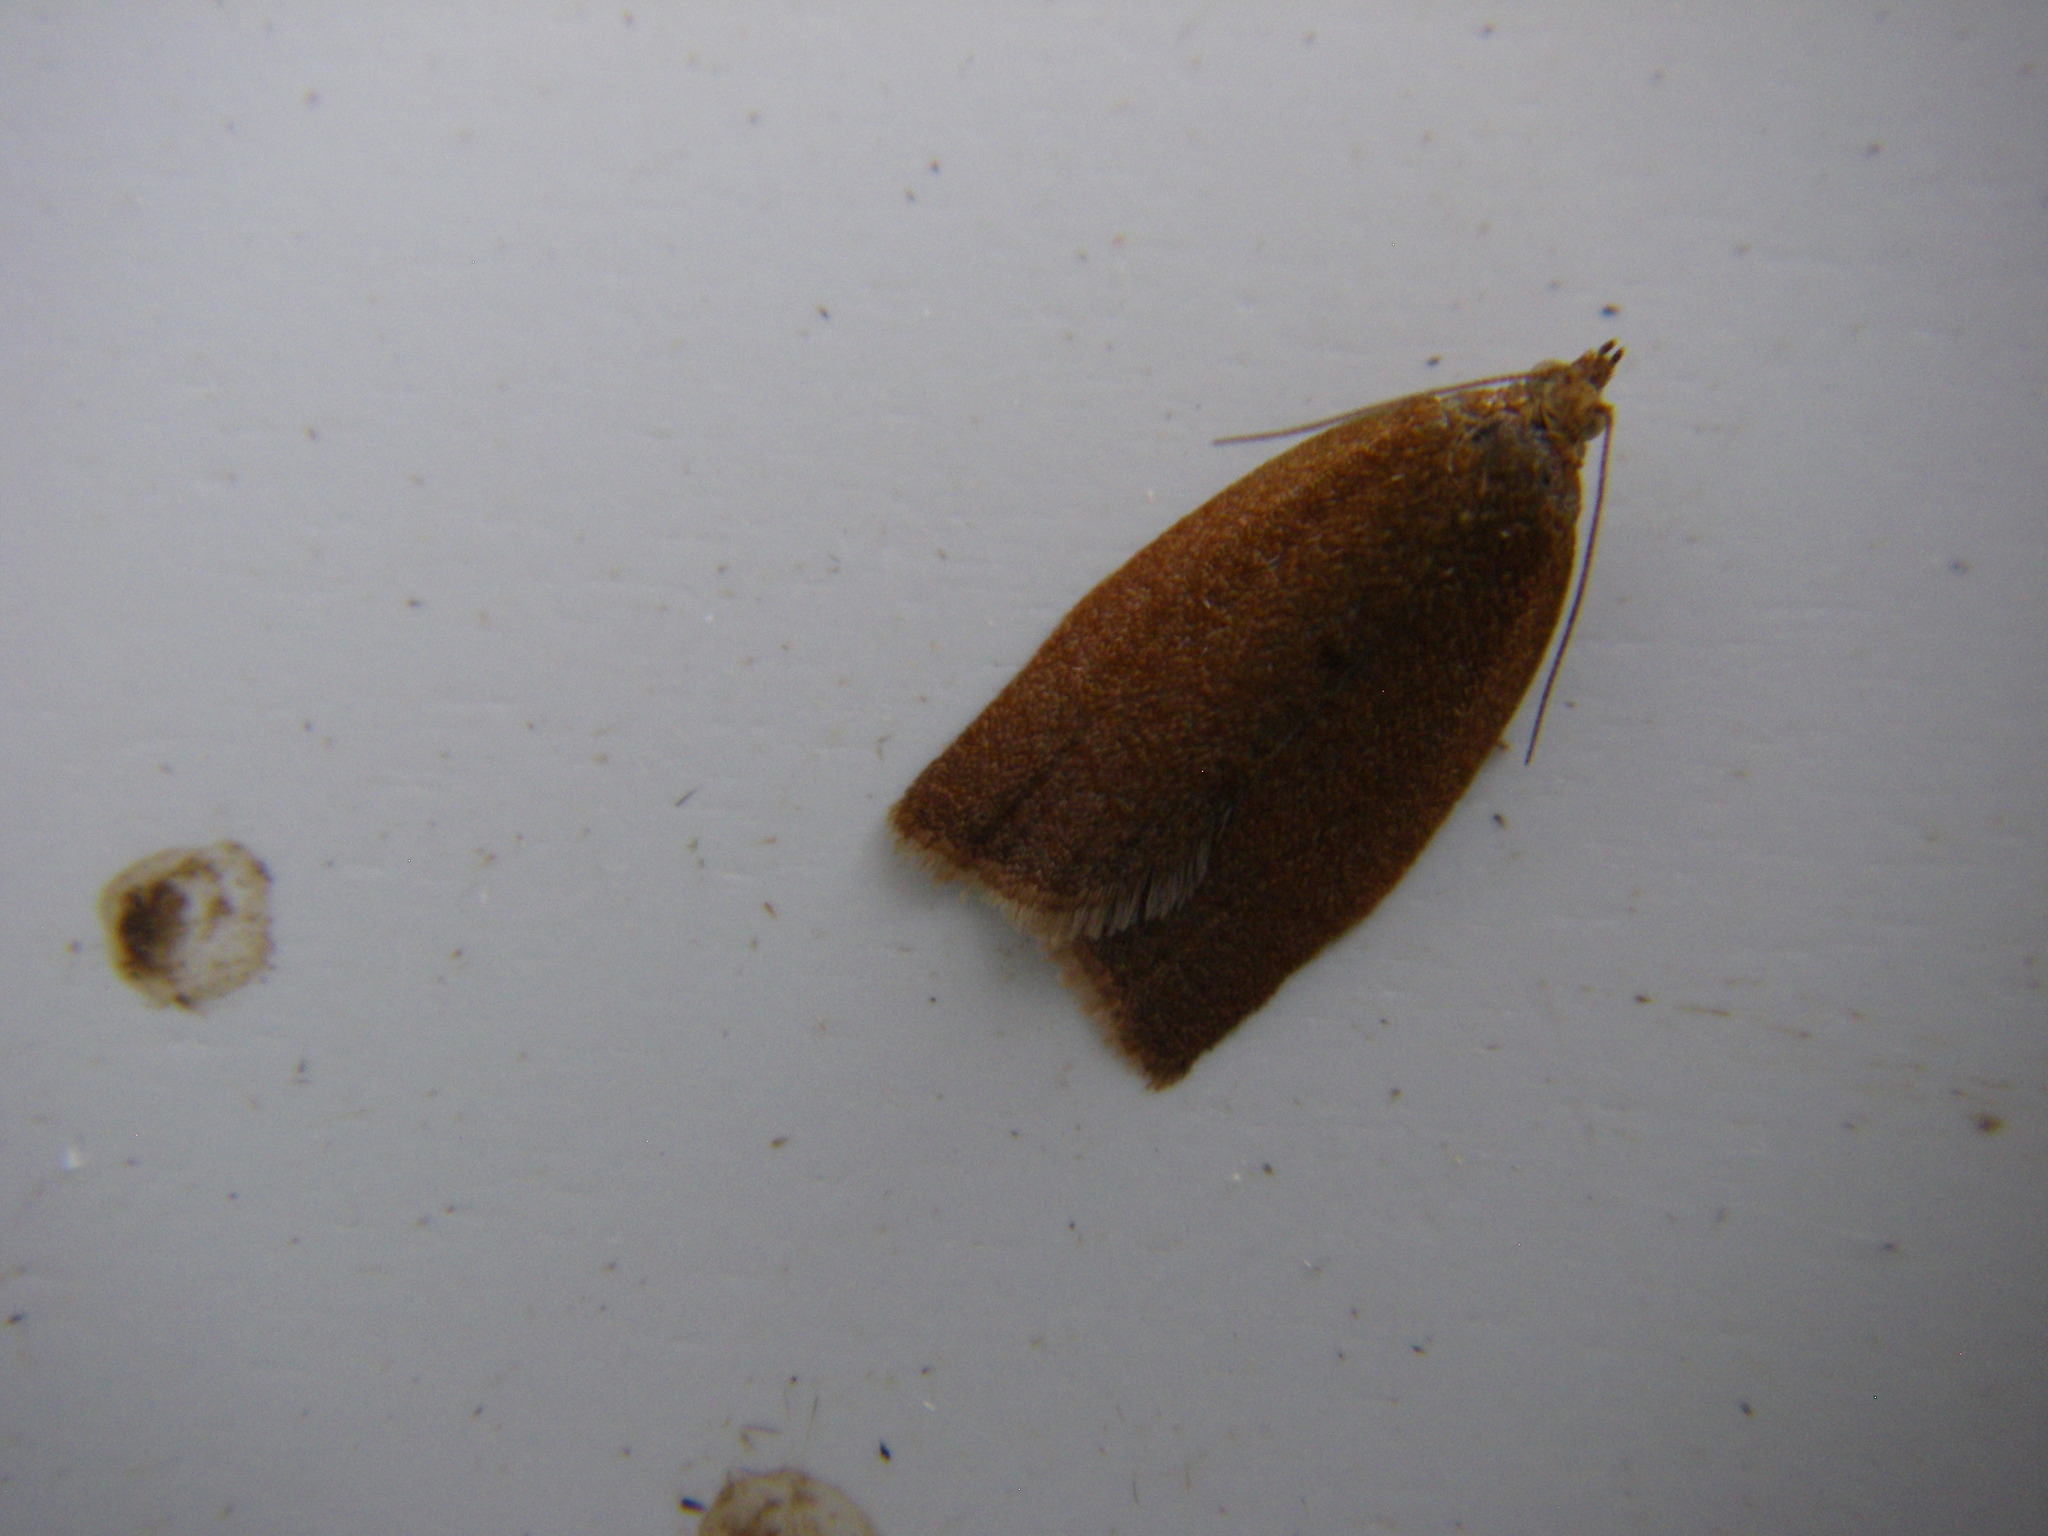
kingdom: Animalia
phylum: Arthropoda
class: Insecta
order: Lepidoptera
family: Tortricidae
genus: Clepsis
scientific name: Clepsis consimilana
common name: Privet tortrix
